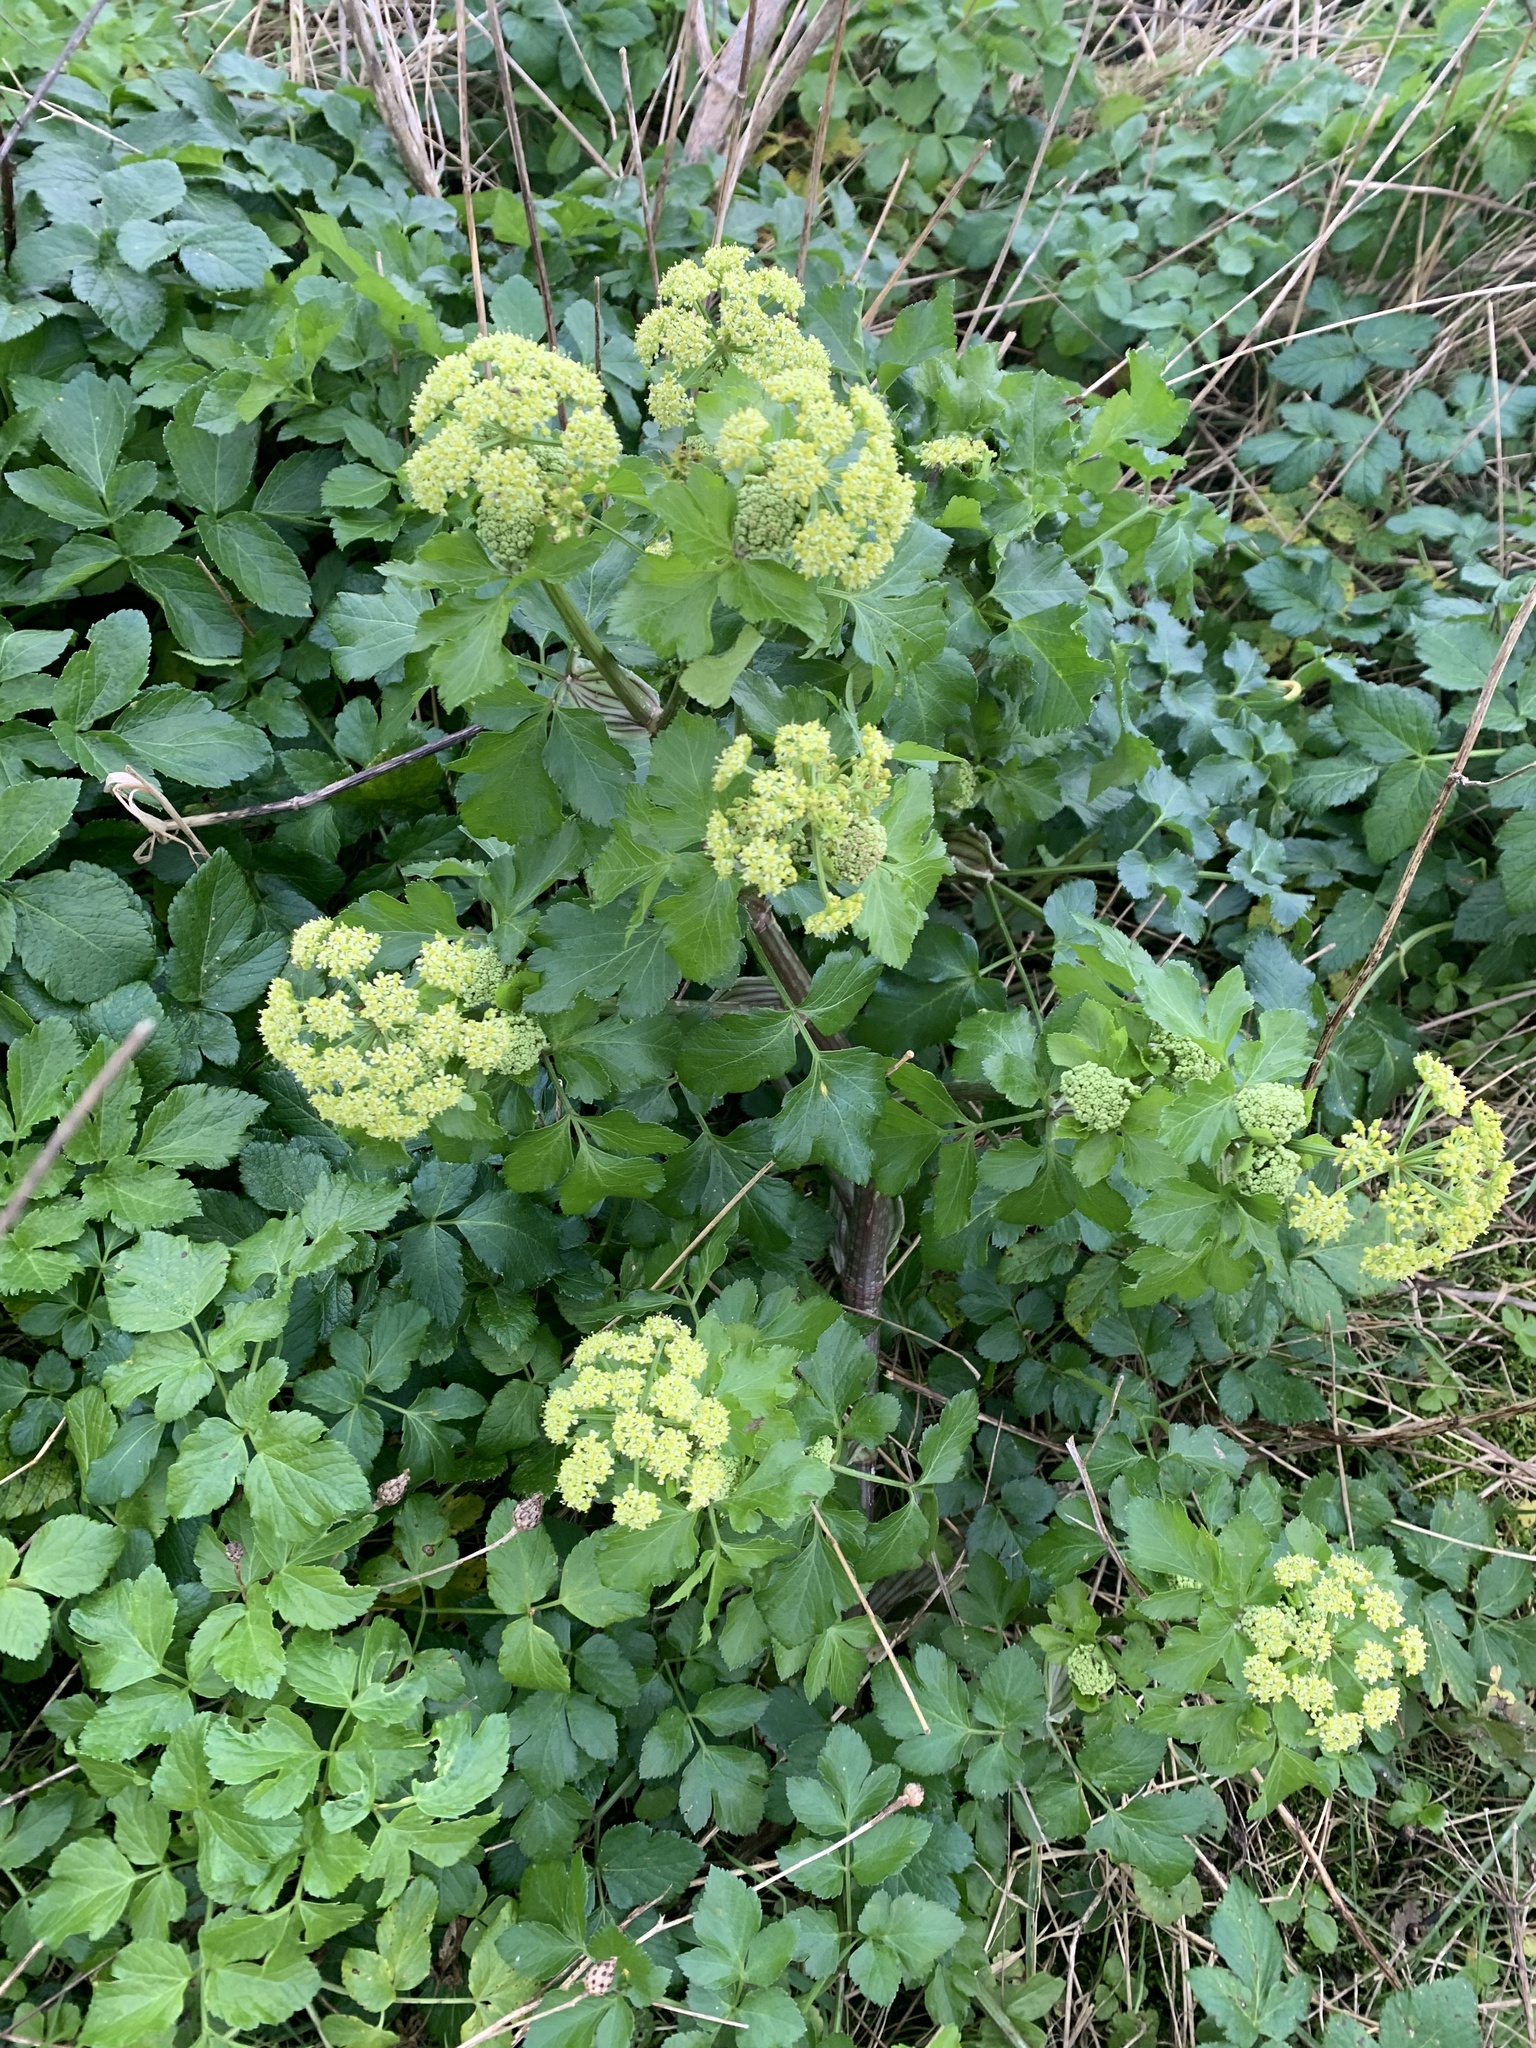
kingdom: Plantae
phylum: Tracheophyta
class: Magnoliopsida
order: Apiales
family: Apiaceae
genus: Smyrnium
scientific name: Smyrnium olusatrum
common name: Alexanders
